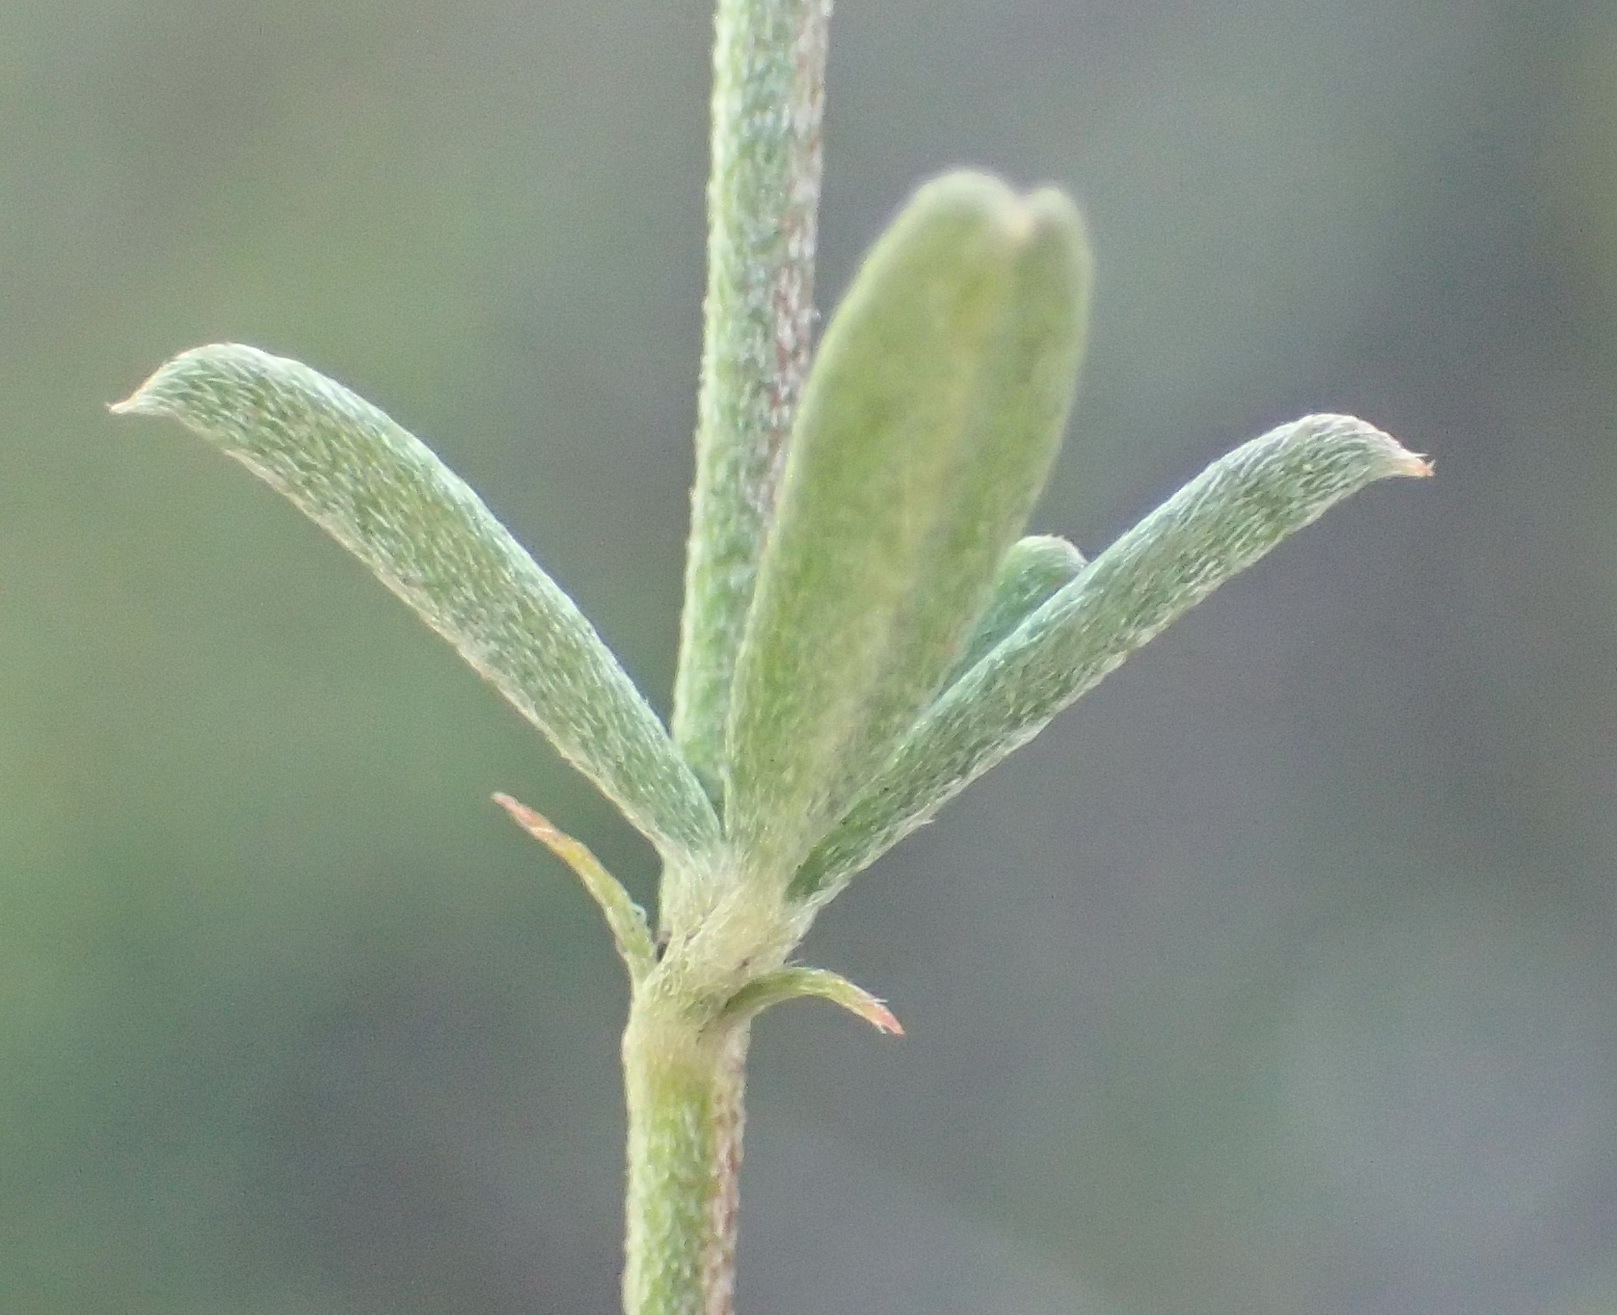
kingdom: Plantae
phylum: Tracheophyta
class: Magnoliopsida
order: Fabales
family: Fabaceae
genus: Indigofera
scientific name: Indigofera priorii
